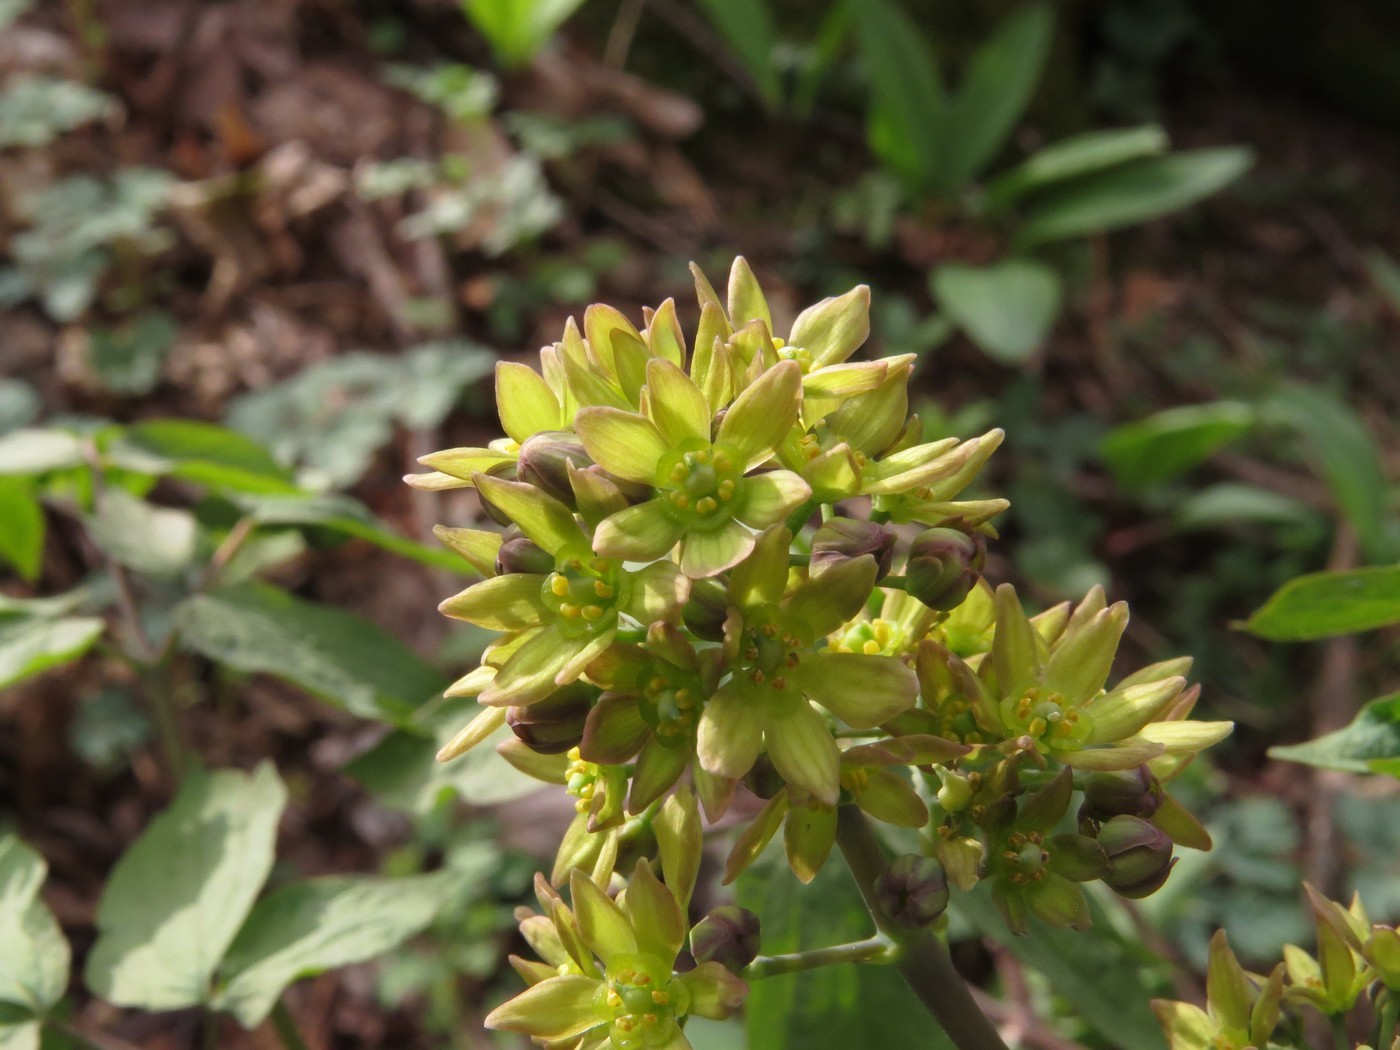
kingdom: Plantae
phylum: Tracheophyta
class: Magnoliopsida
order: Ranunculales
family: Berberidaceae
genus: Caulophyllum
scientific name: Caulophyllum thalictroides
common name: Blue cohosh
